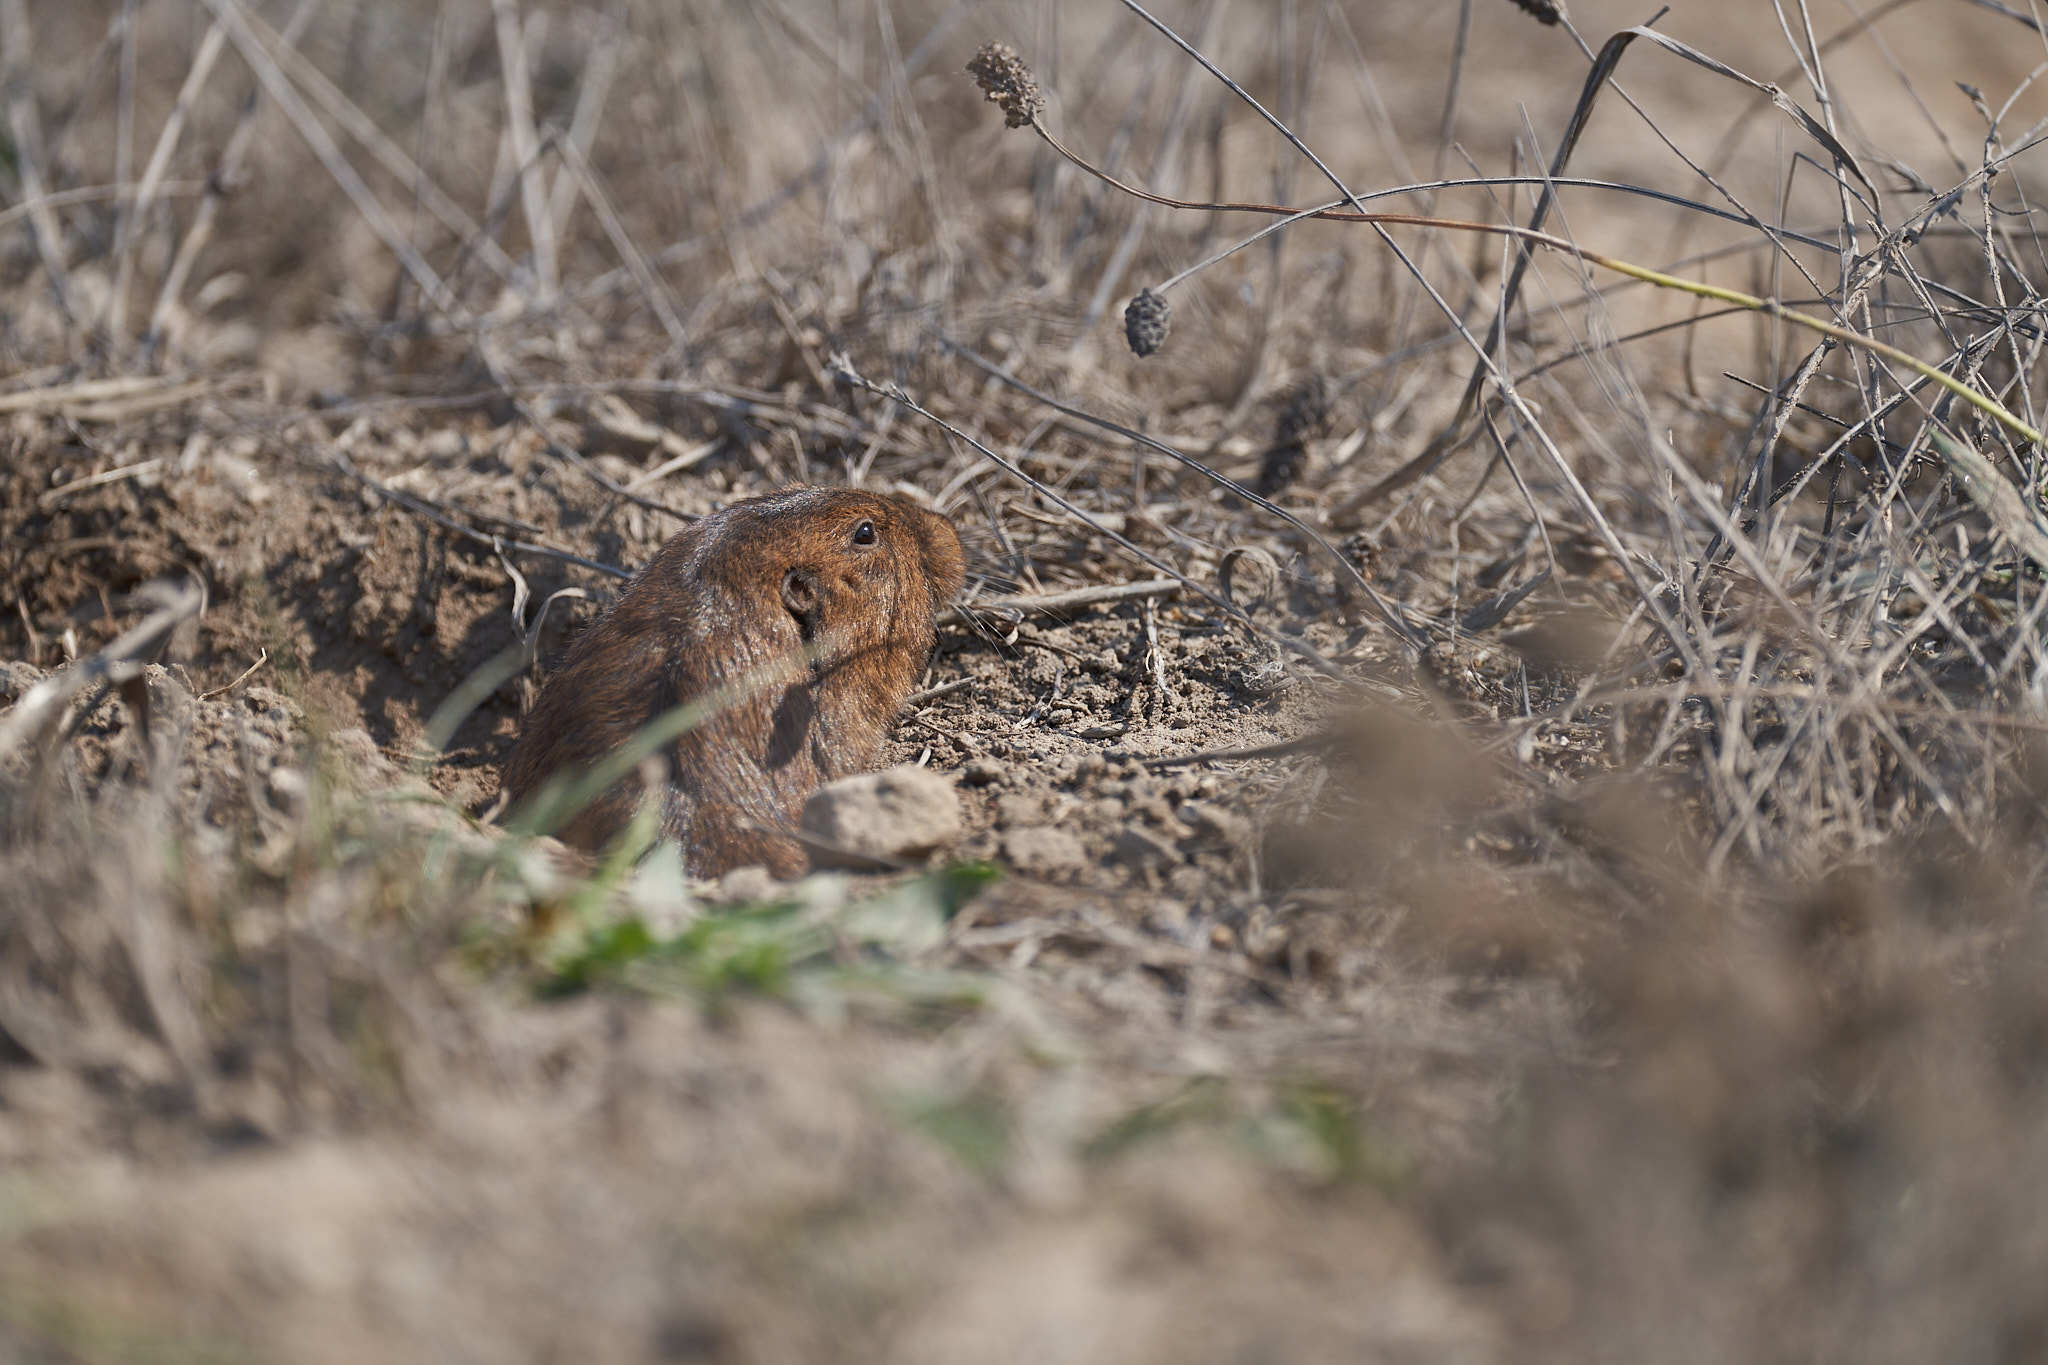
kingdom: Animalia
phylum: Chordata
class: Mammalia
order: Rodentia
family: Geomyidae
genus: Thomomys
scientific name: Thomomys bottae
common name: Botta's pocket gopher
